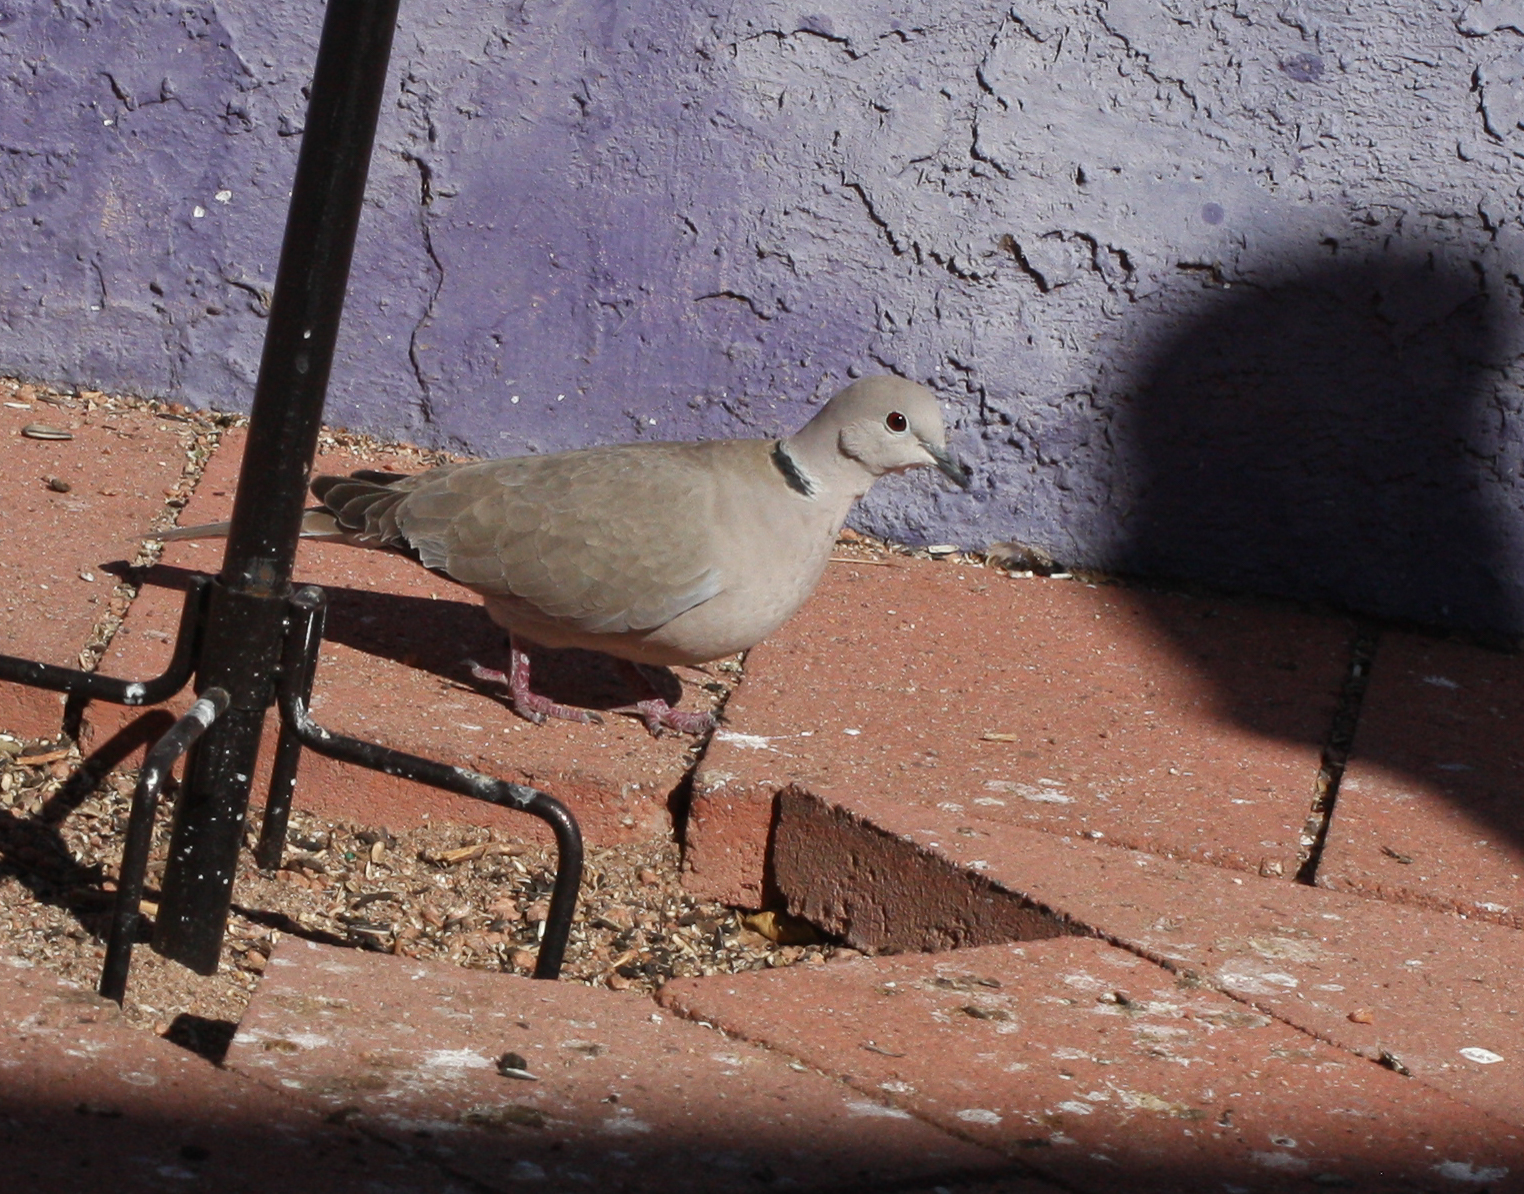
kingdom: Animalia
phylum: Chordata
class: Aves
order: Columbiformes
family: Columbidae
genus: Streptopelia
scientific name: Streptopelia decaocto
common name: Eurasian collared dove
